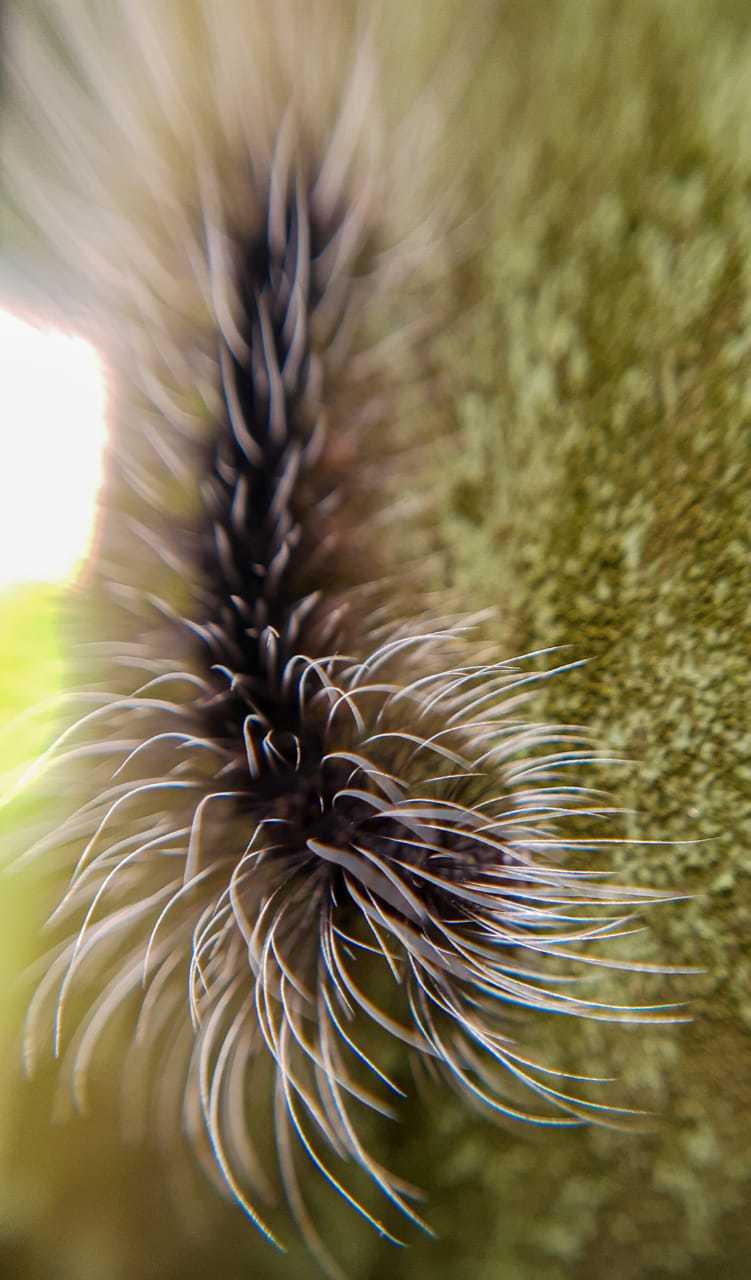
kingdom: Animalia
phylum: Arthropoda
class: Insecta
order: Lepidoptera
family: Erebidae
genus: Apistosia
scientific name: Apistosia judas
